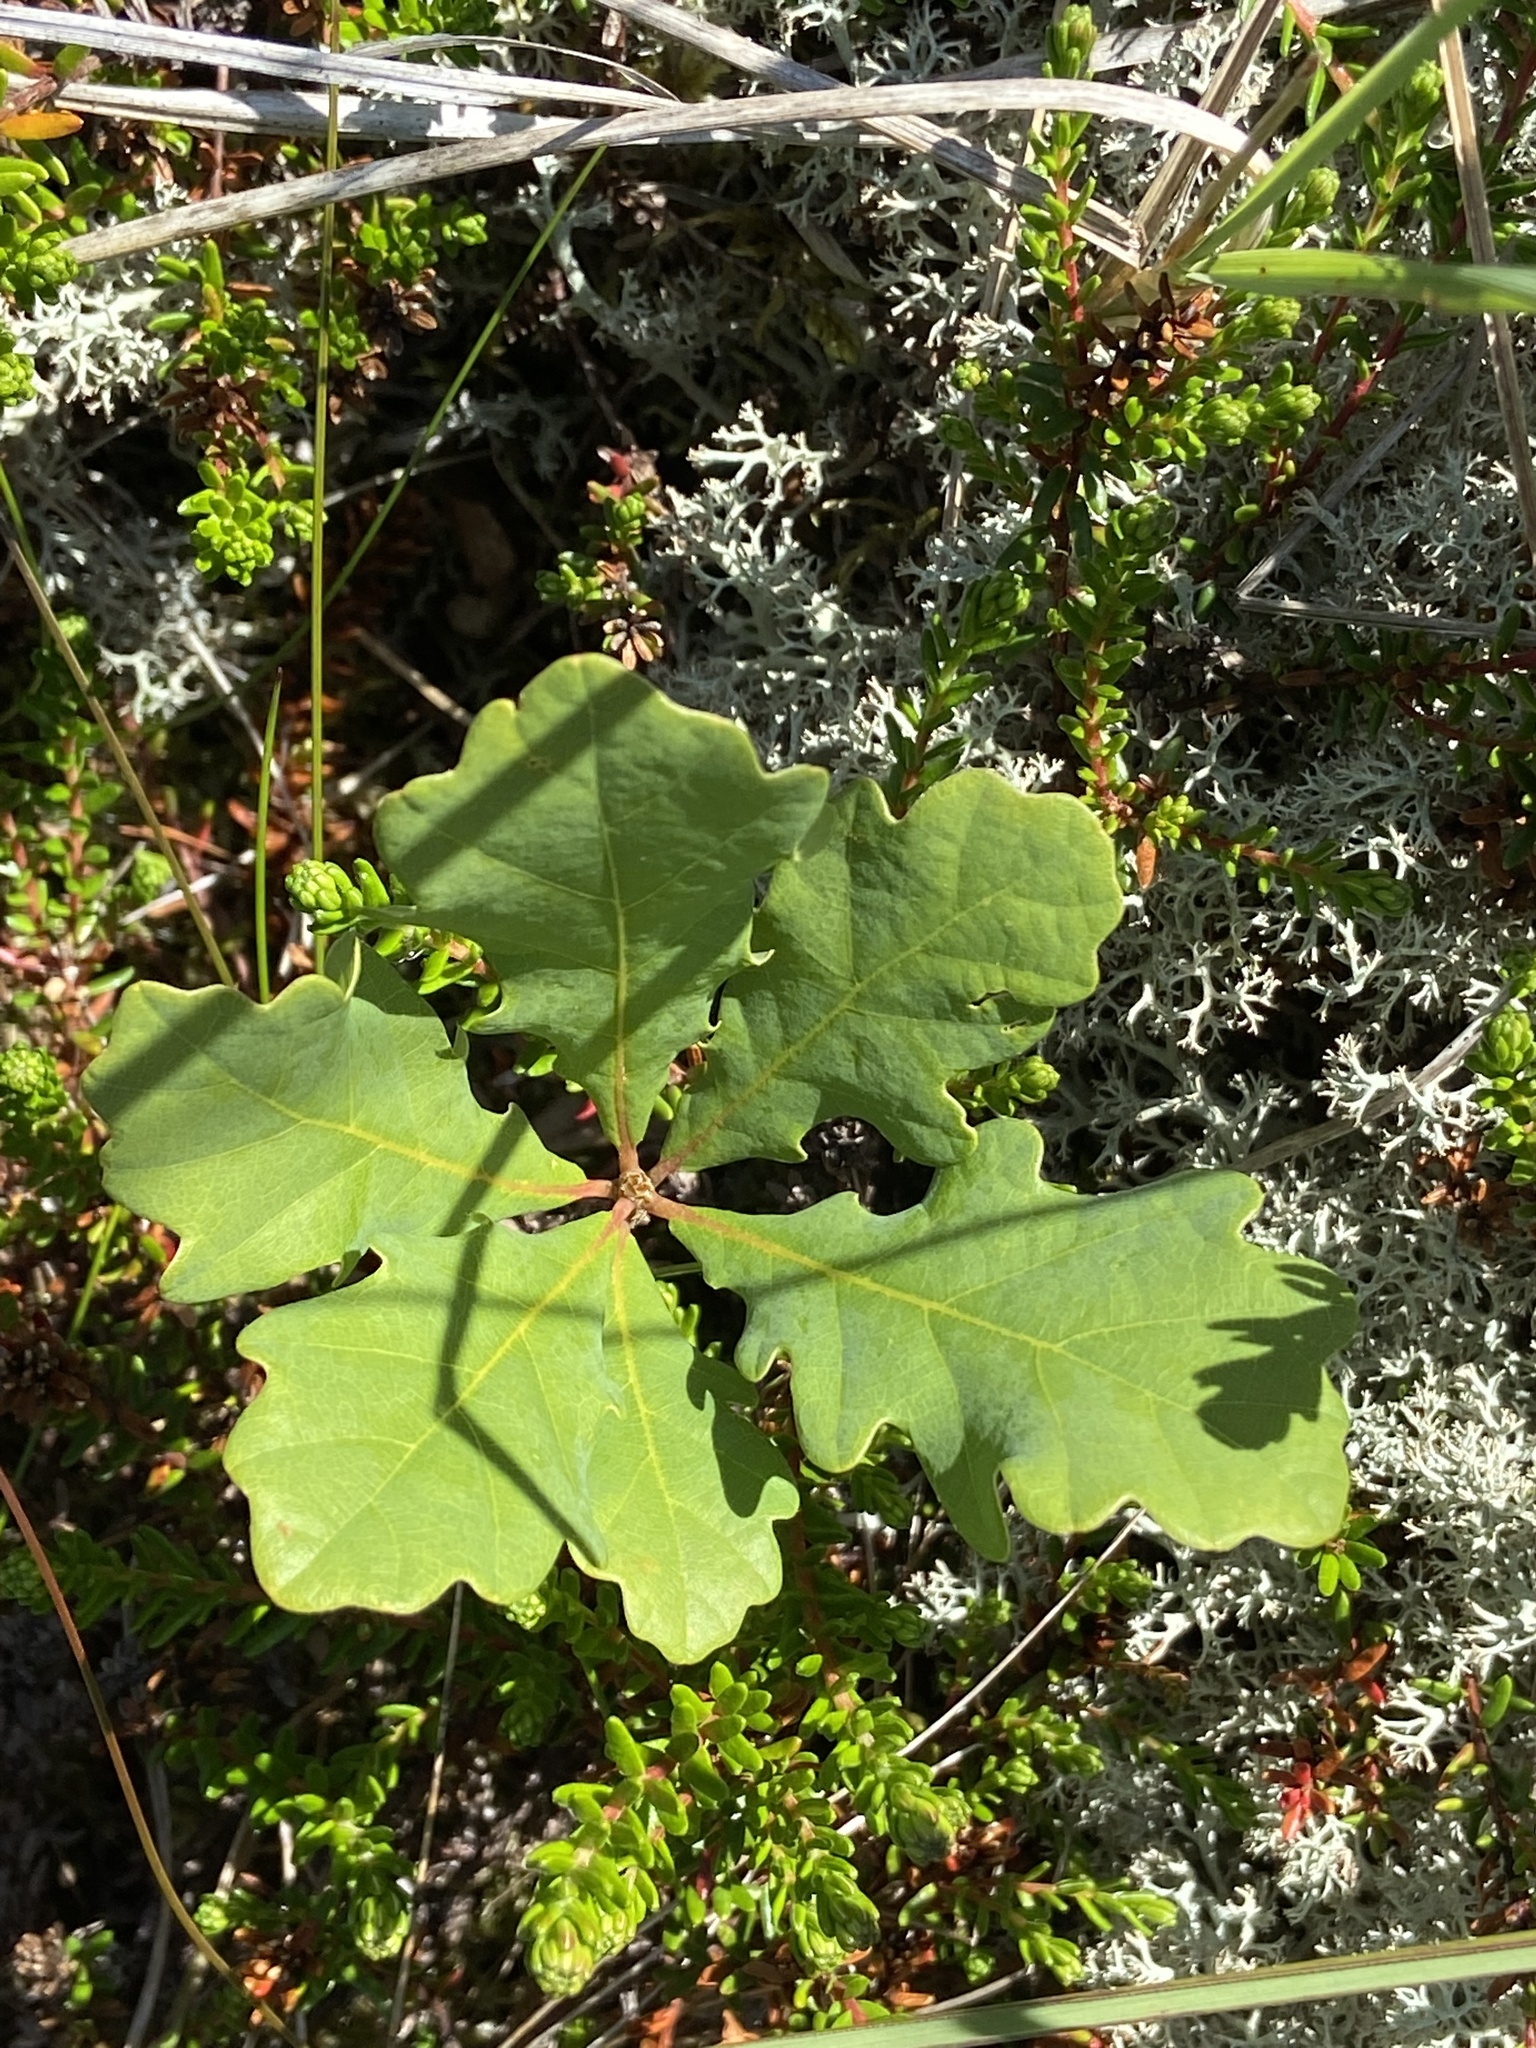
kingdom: Plantae
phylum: Tracheophyta
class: Magnoliopsida
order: Fagales
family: Fagaceae
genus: Quercus
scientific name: Quercus robur
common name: Pedunculate oak
